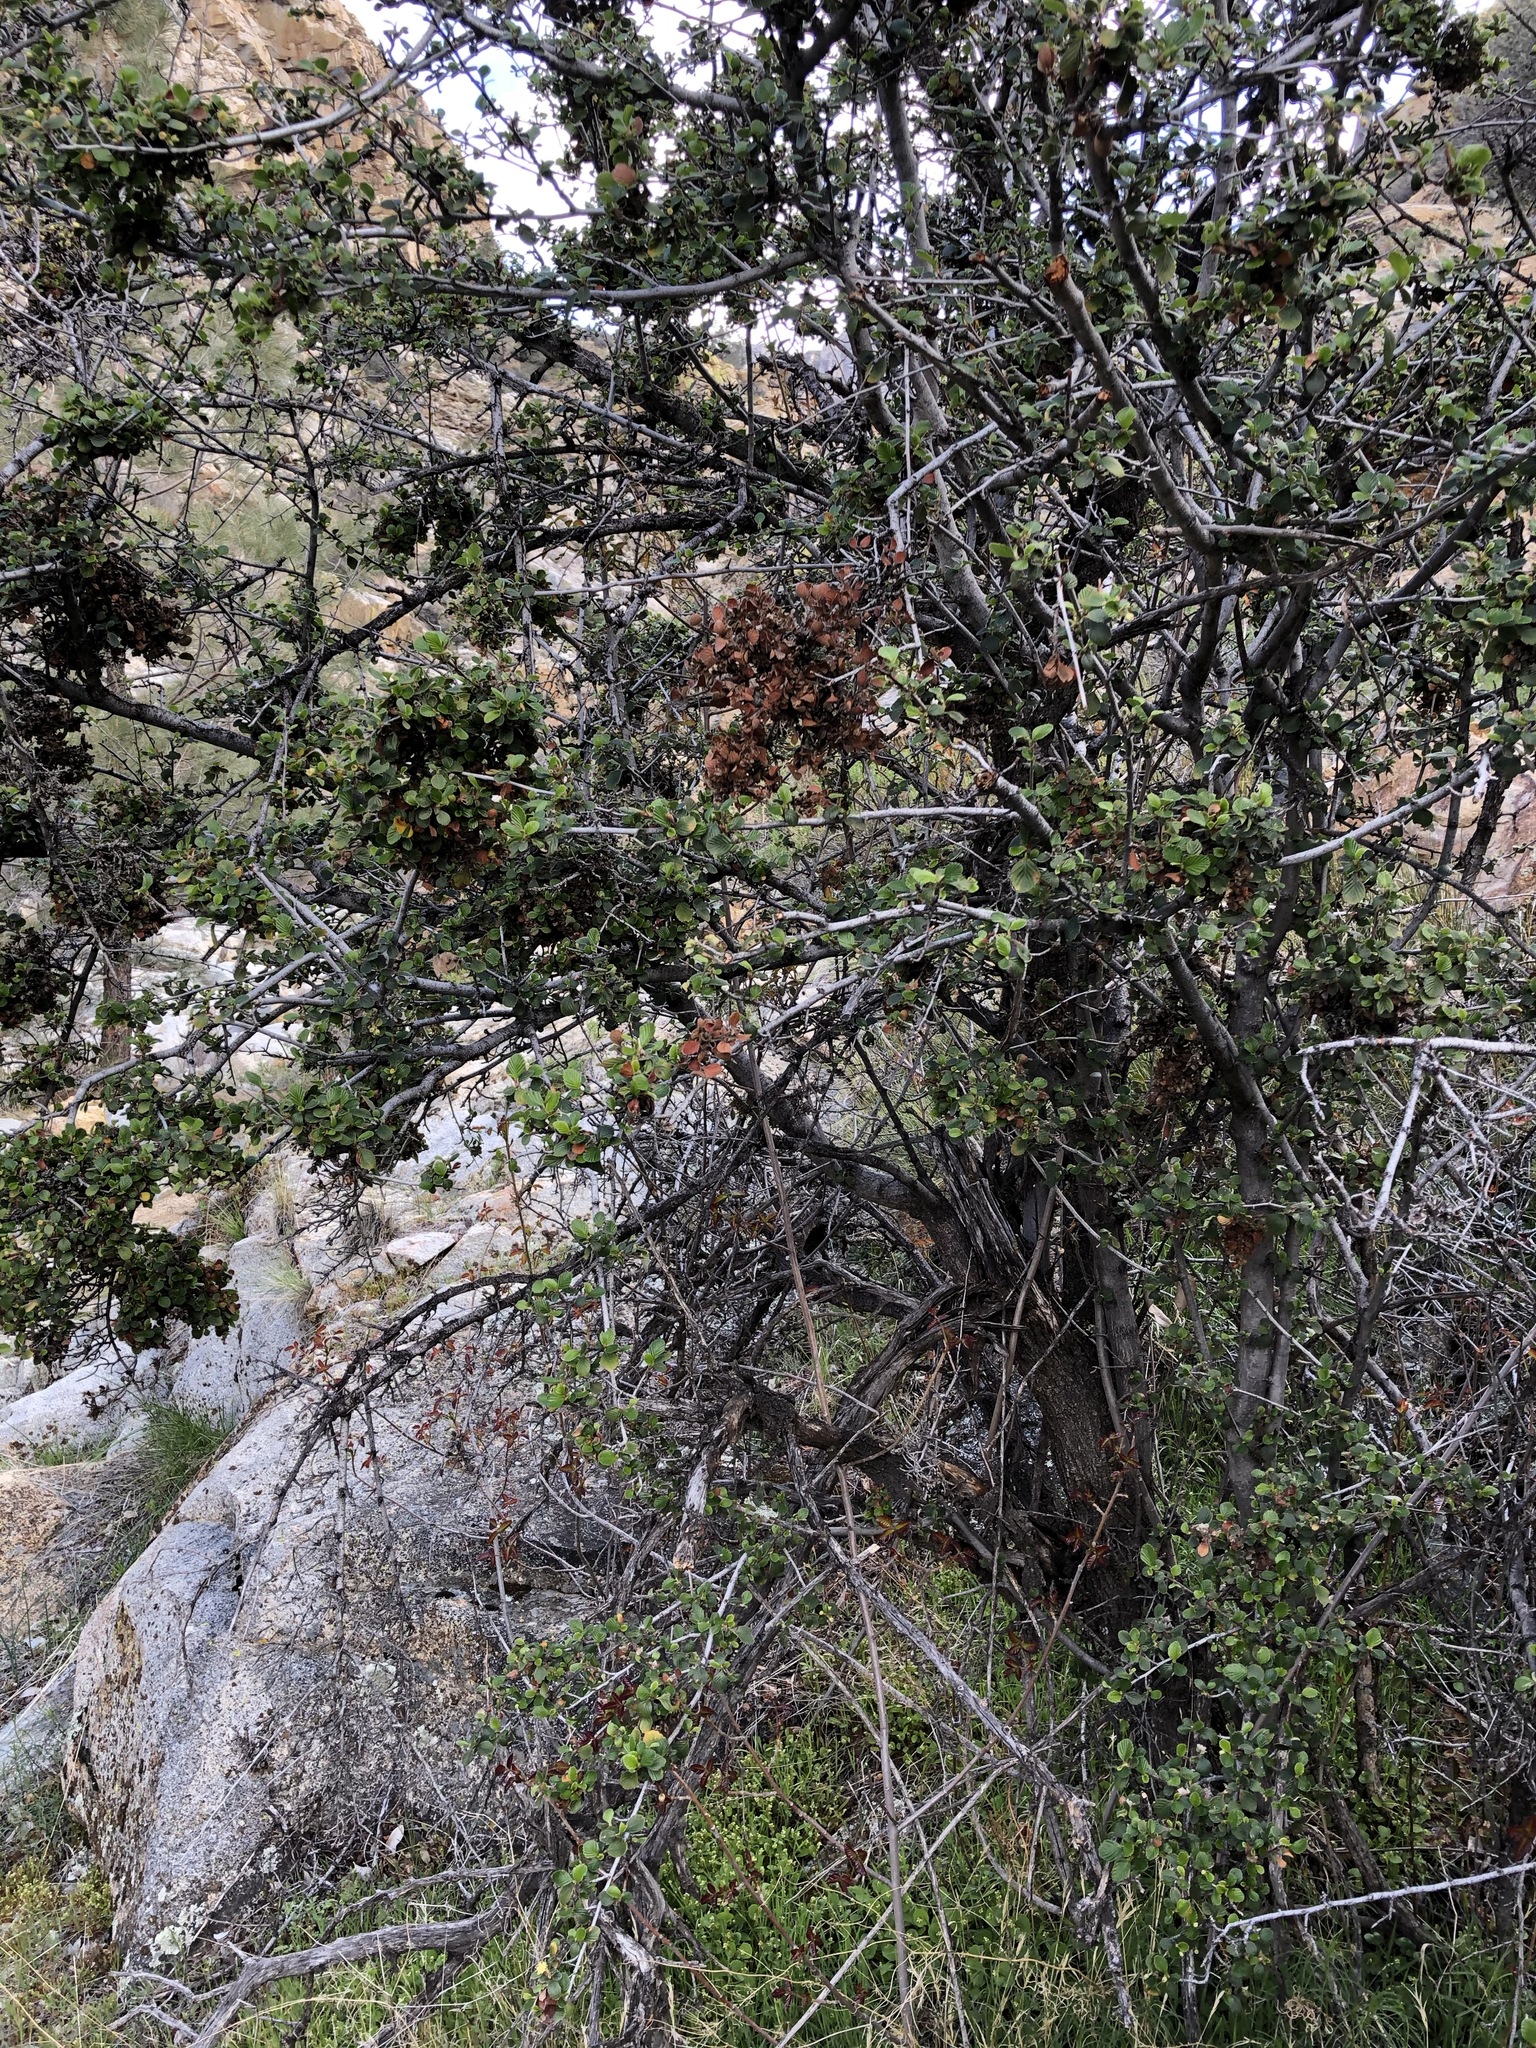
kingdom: Plantae
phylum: Tracheophyta
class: Magnoliopsida
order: Rosales
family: Rosaceae
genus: Cercocarpus
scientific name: Cercocarpus betuloides
